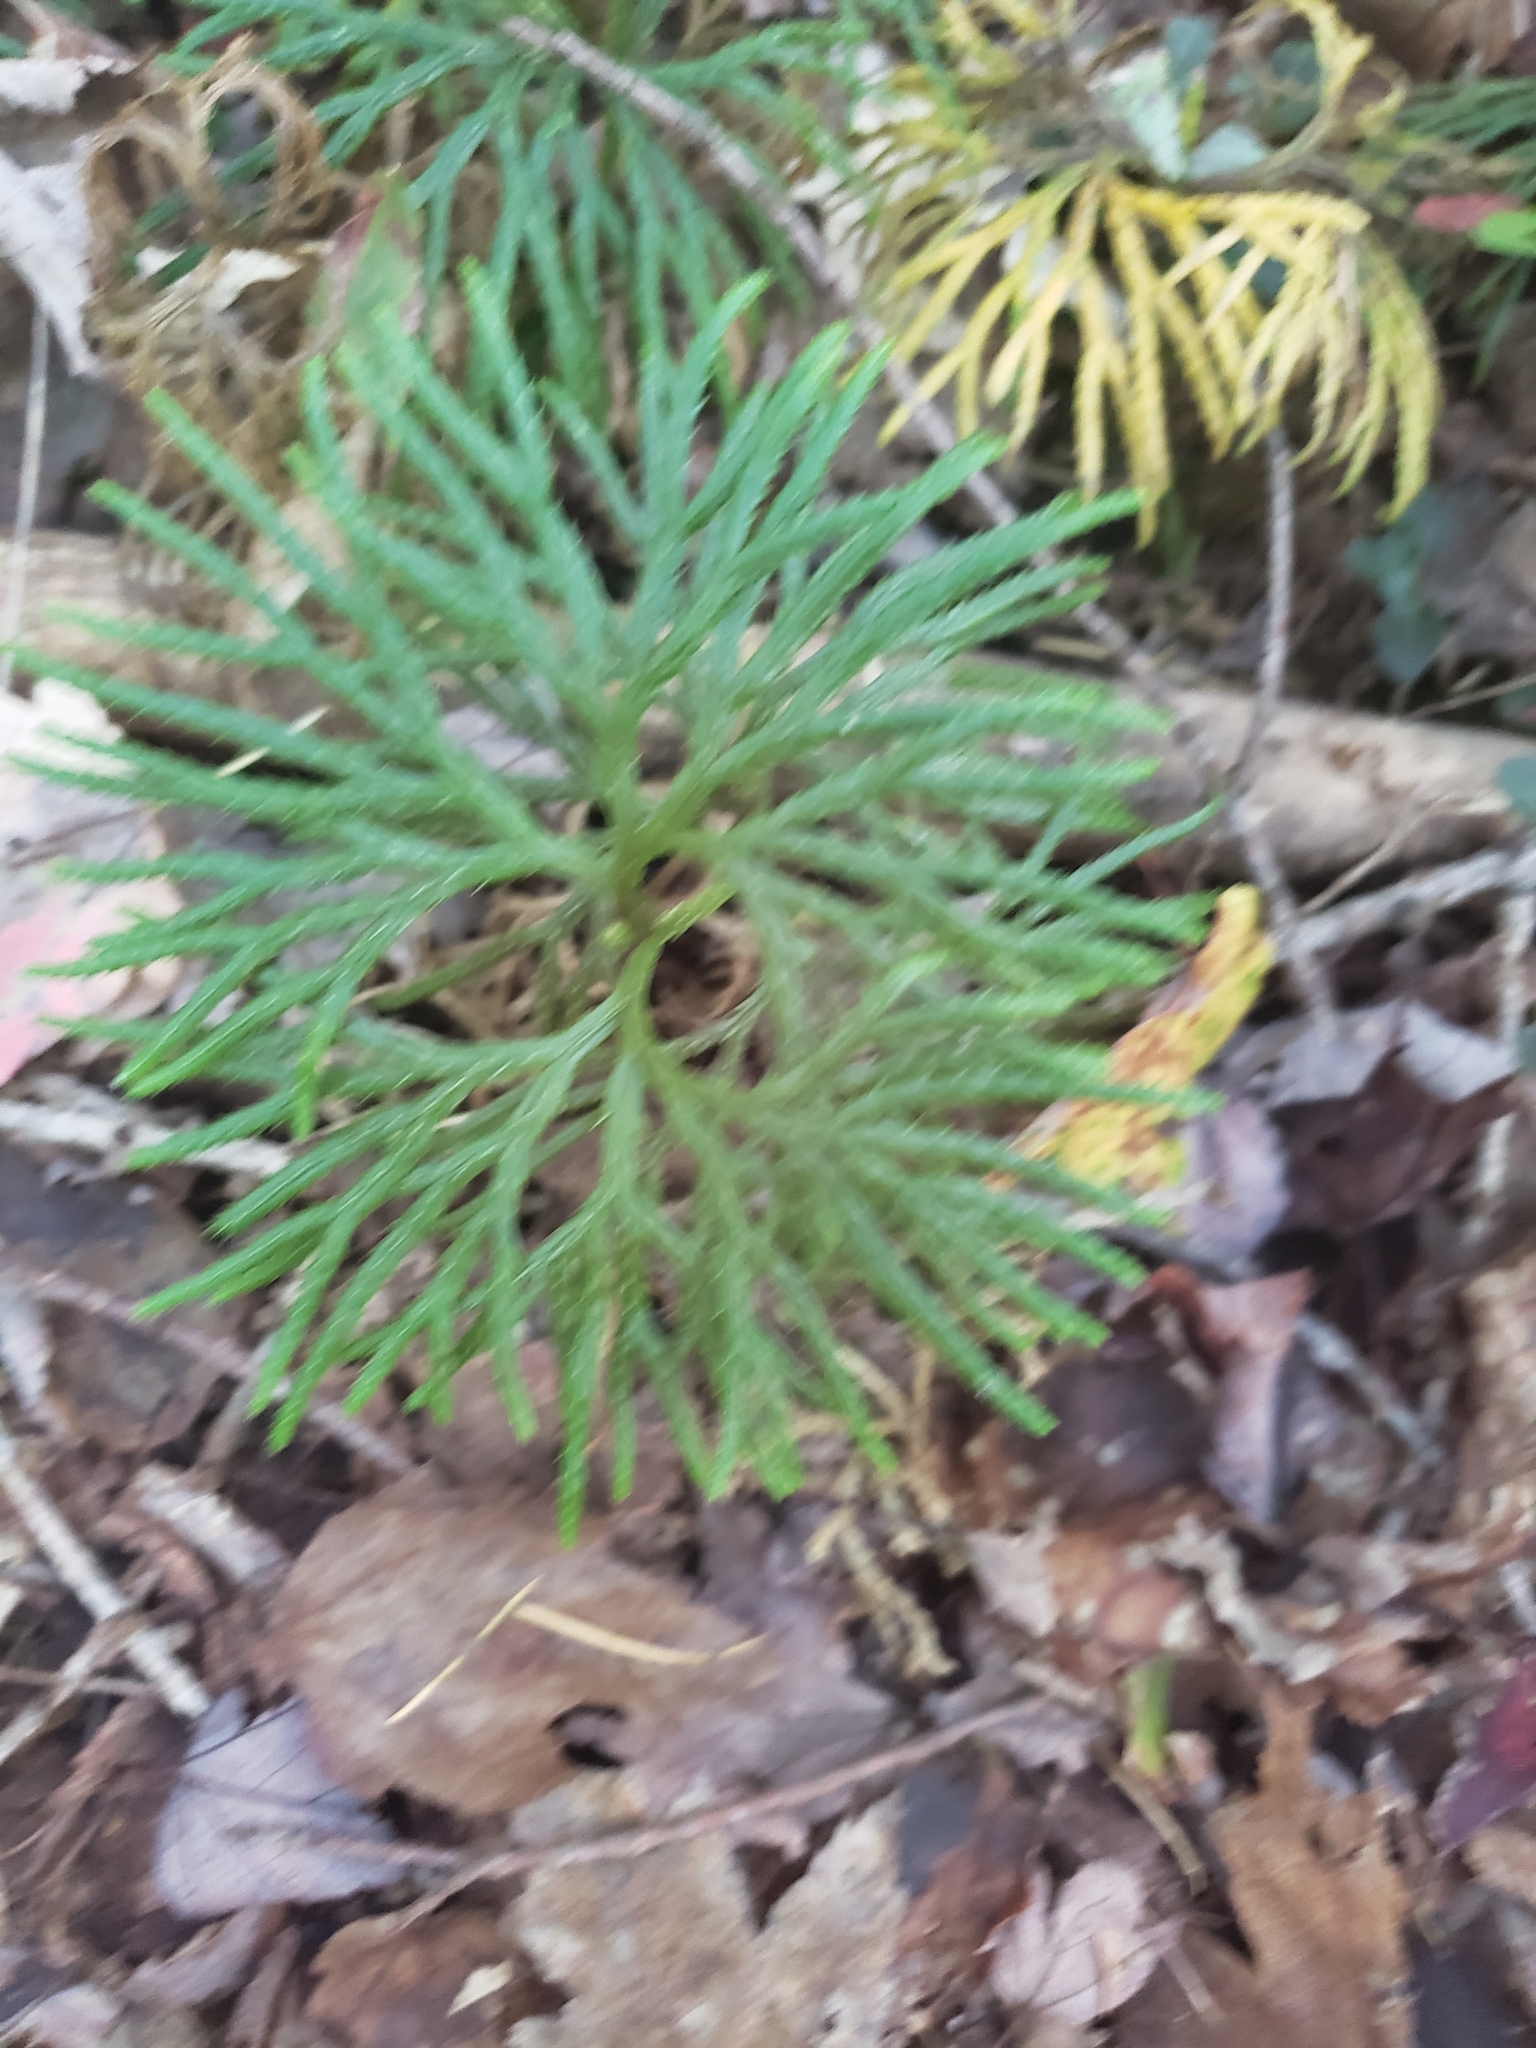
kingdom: Plantae
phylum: Tracheophyta
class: Lycopodiopsida
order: Lycopodiales
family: Lycopodiaceae
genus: Diphasiastrum
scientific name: Diphasiastrum digitatum
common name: Southern running-pine
